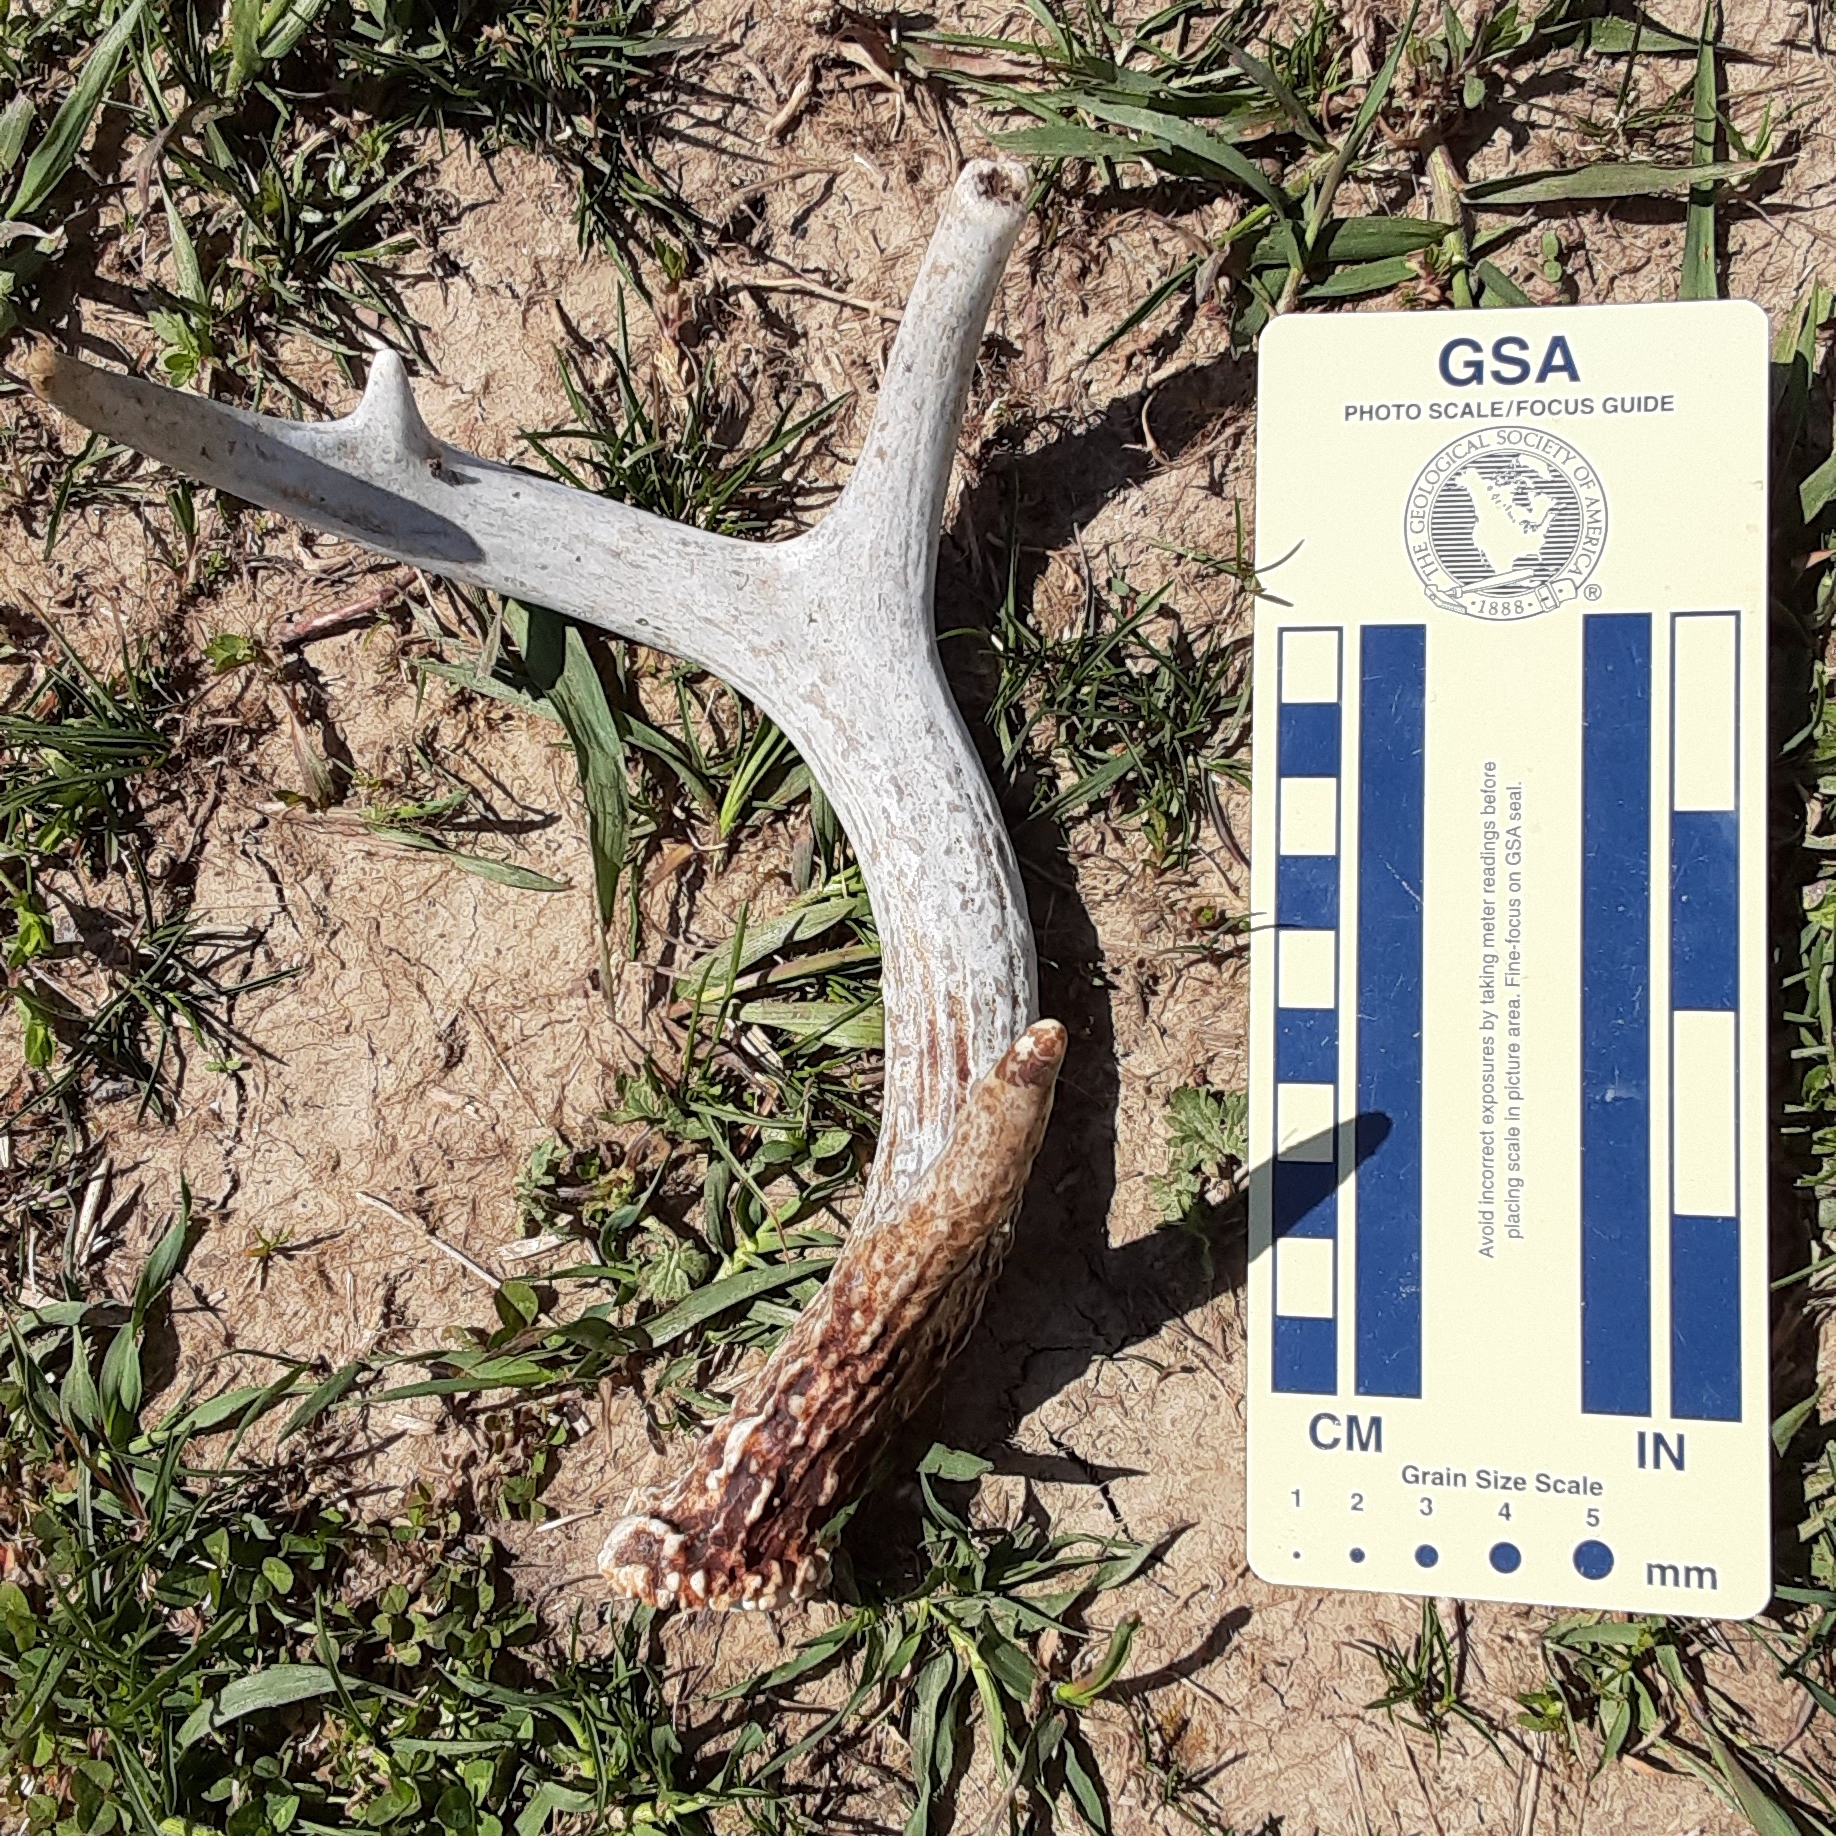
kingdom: Animalia
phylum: Chordata
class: Mammalia
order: Artiodactyla
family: Cervidae
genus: Odocoileus
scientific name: Odocoileus virginianus
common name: White-tailed deer
